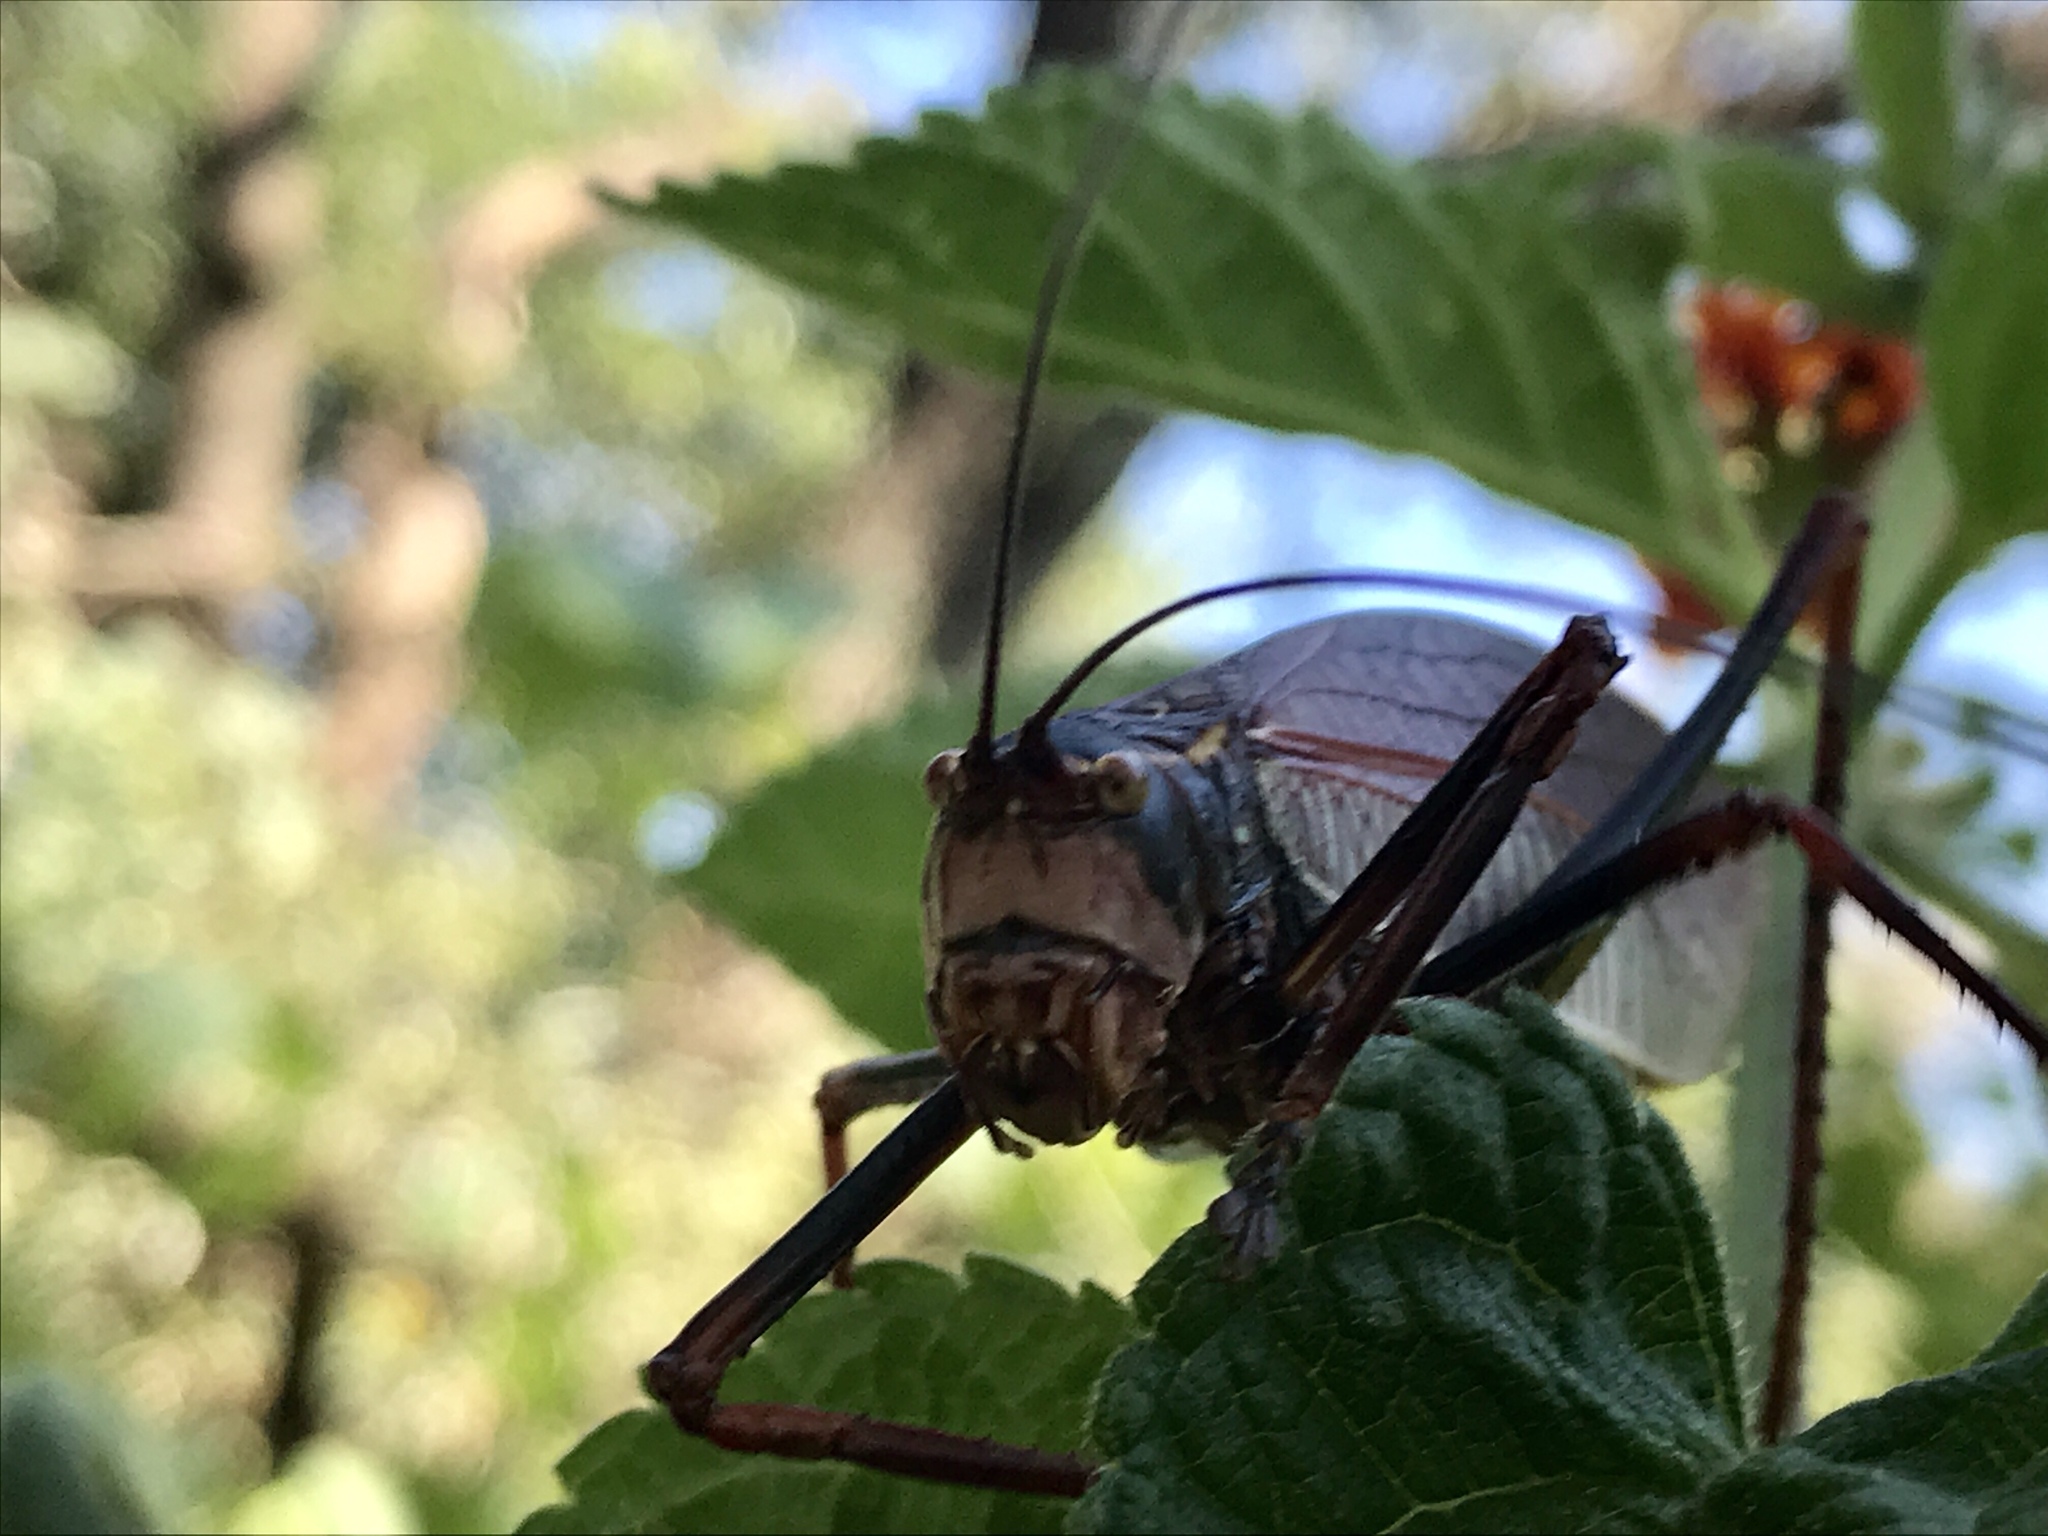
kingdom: Animalia
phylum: Arthropoda
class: Insecta
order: Orthoptera
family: Tettigoniidae
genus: Pterophylla
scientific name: Pterophylla beltrani
